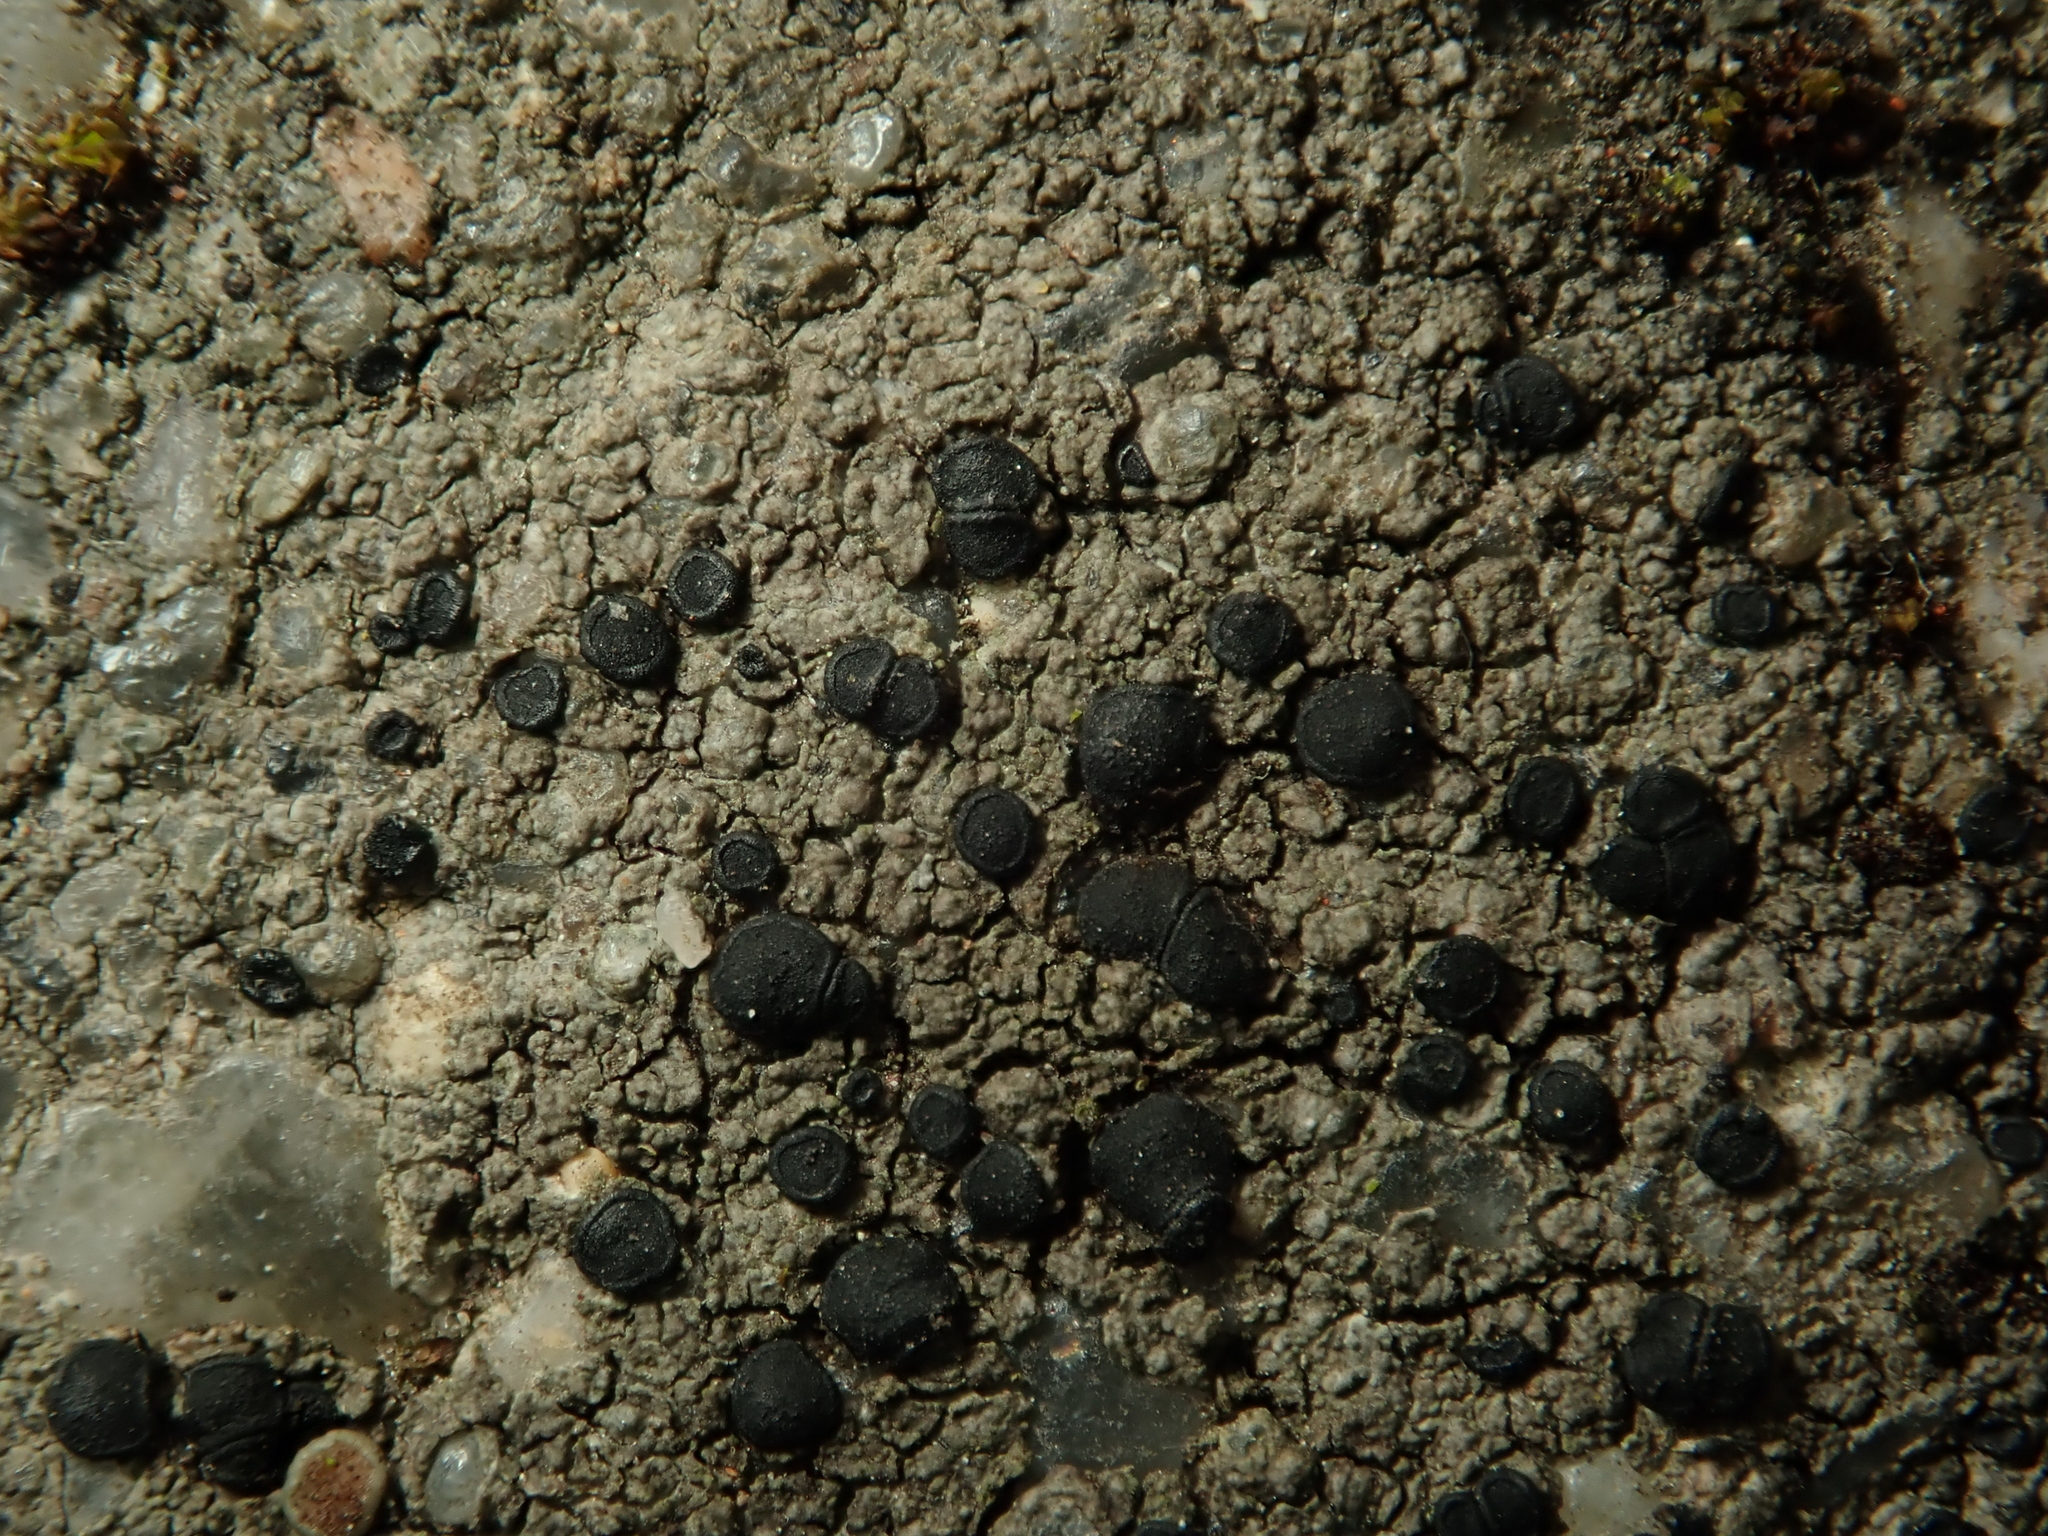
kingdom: Fungi
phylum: Ascomycota
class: Lecanoromycetes
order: Lecanorales
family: Lecanoraceae
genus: Lecidella
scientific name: Lecidella stigmatea
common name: Limestone disc lichen
